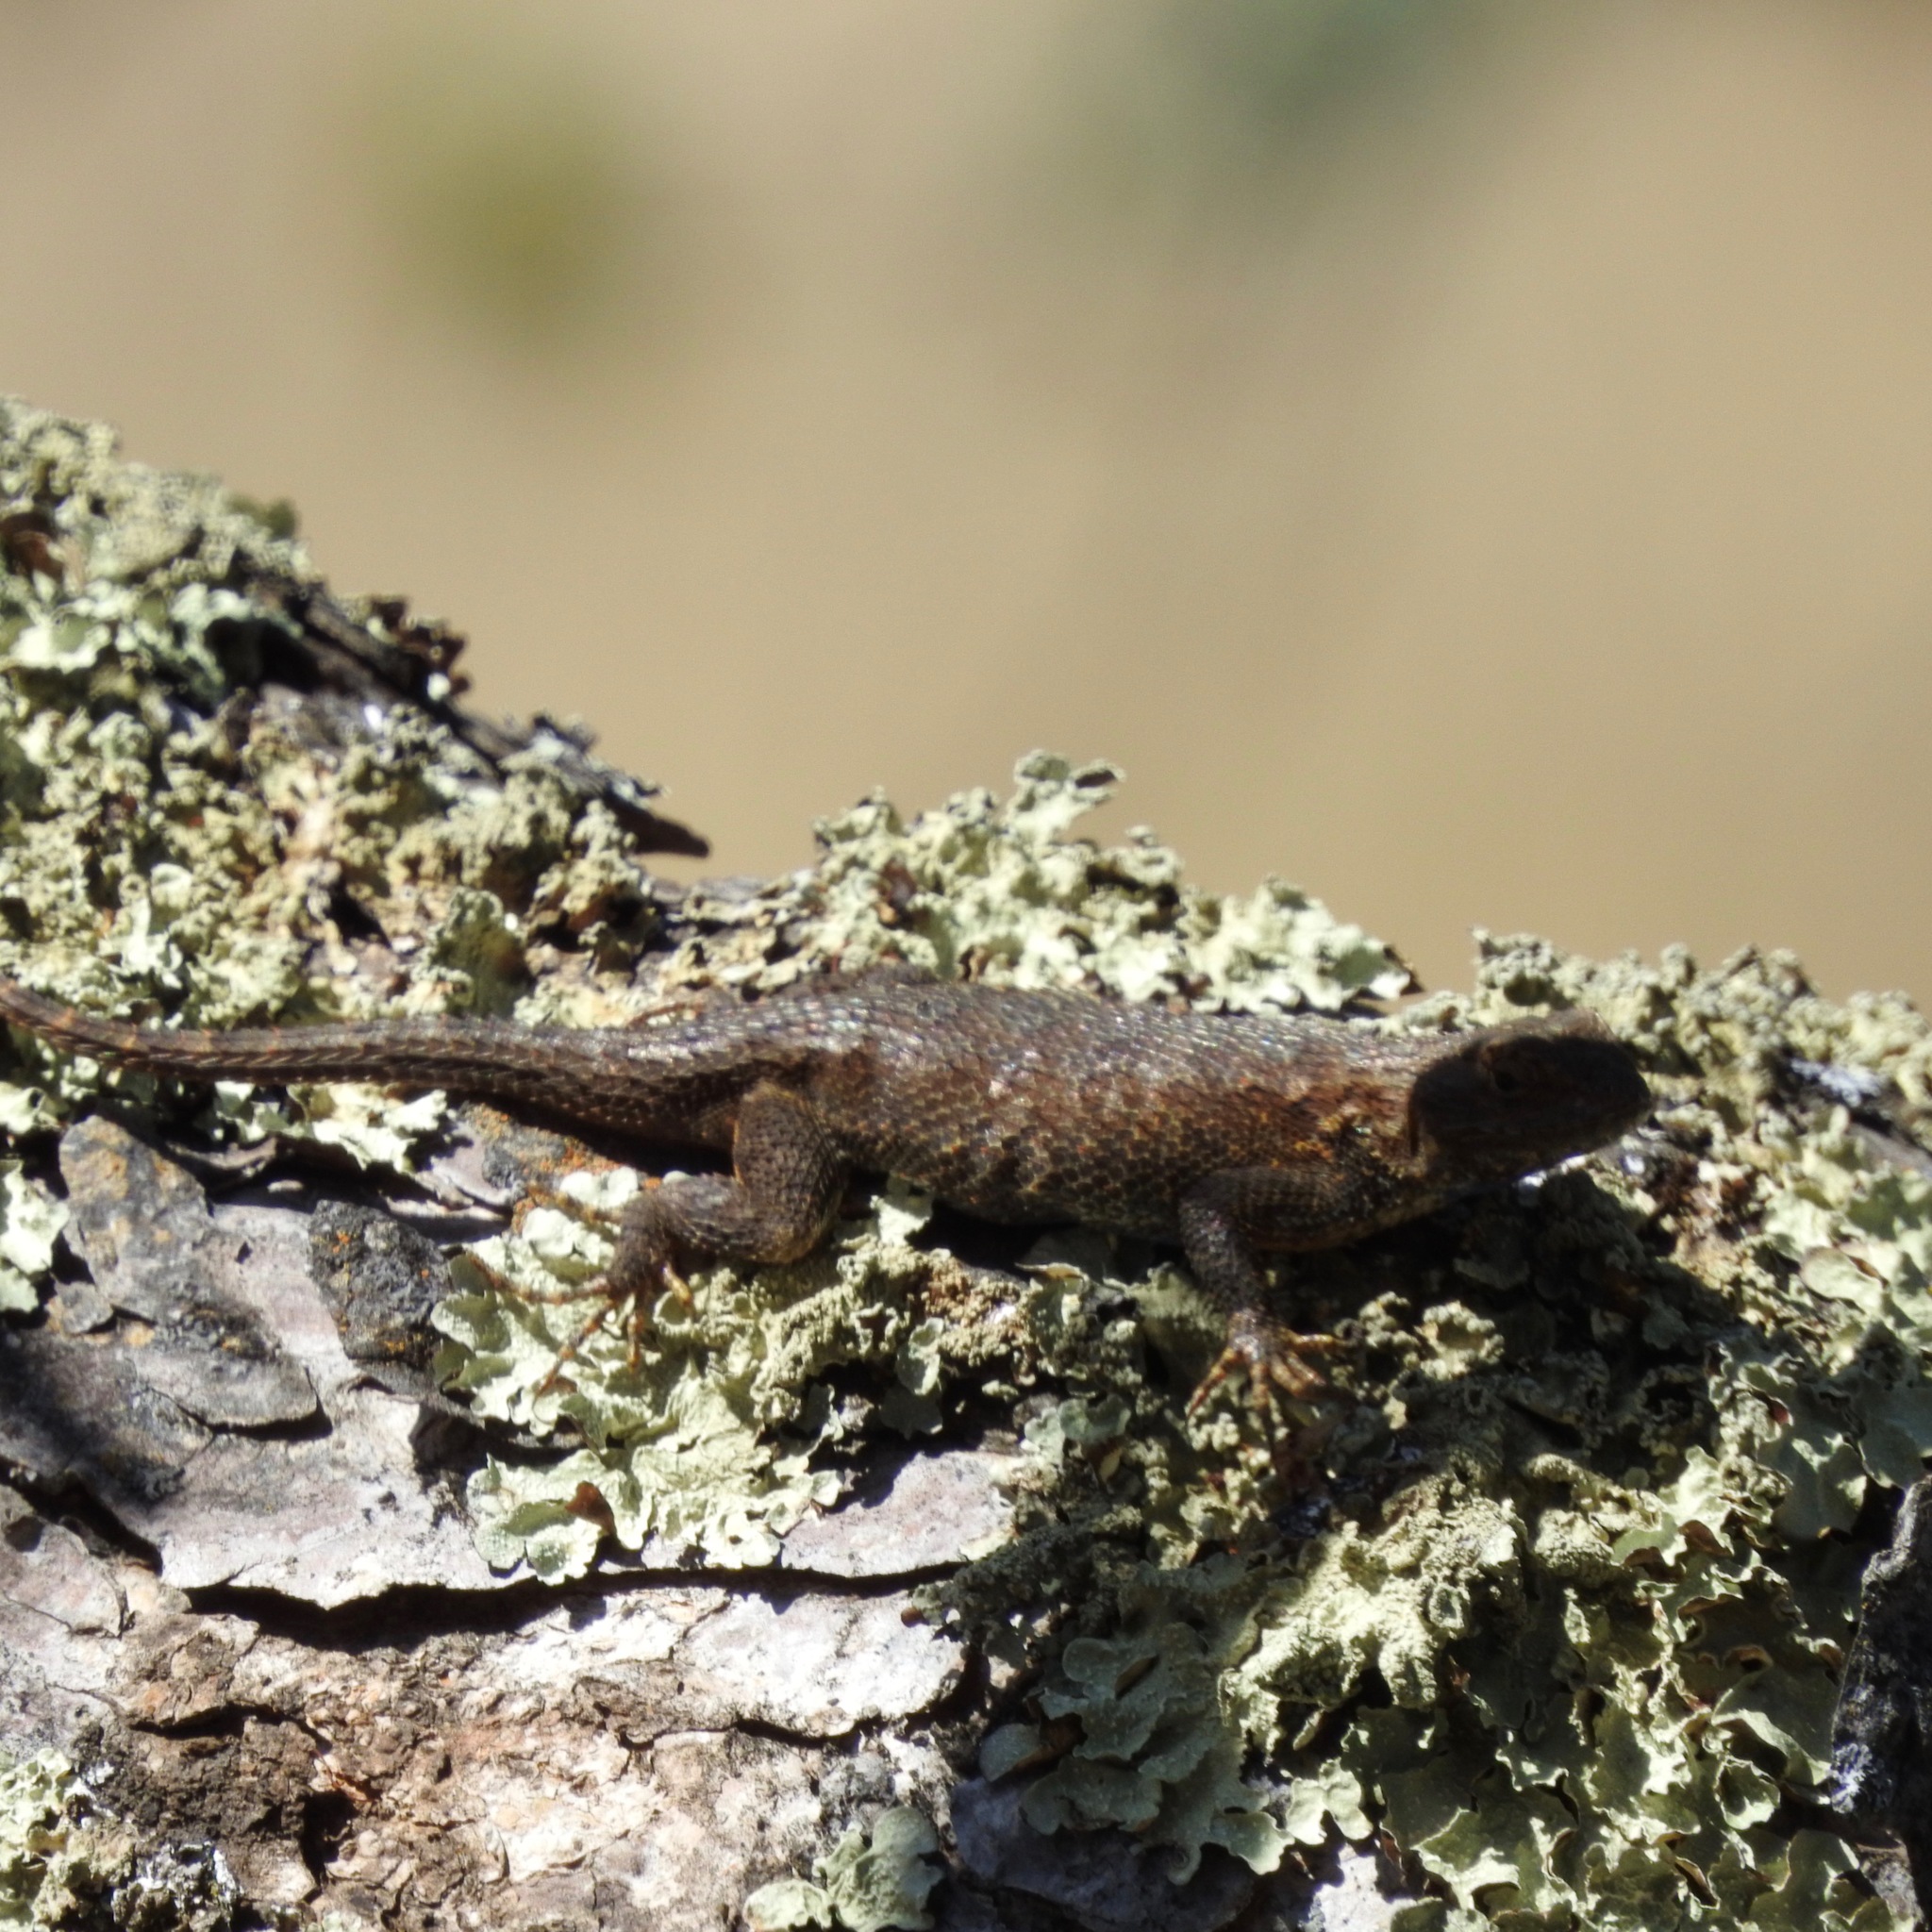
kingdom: Animalia
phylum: Chordata
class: Squamata
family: Phrynosomatidae
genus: Sceloporus
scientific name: Sceloporus occidentalis
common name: Western fence lizard
